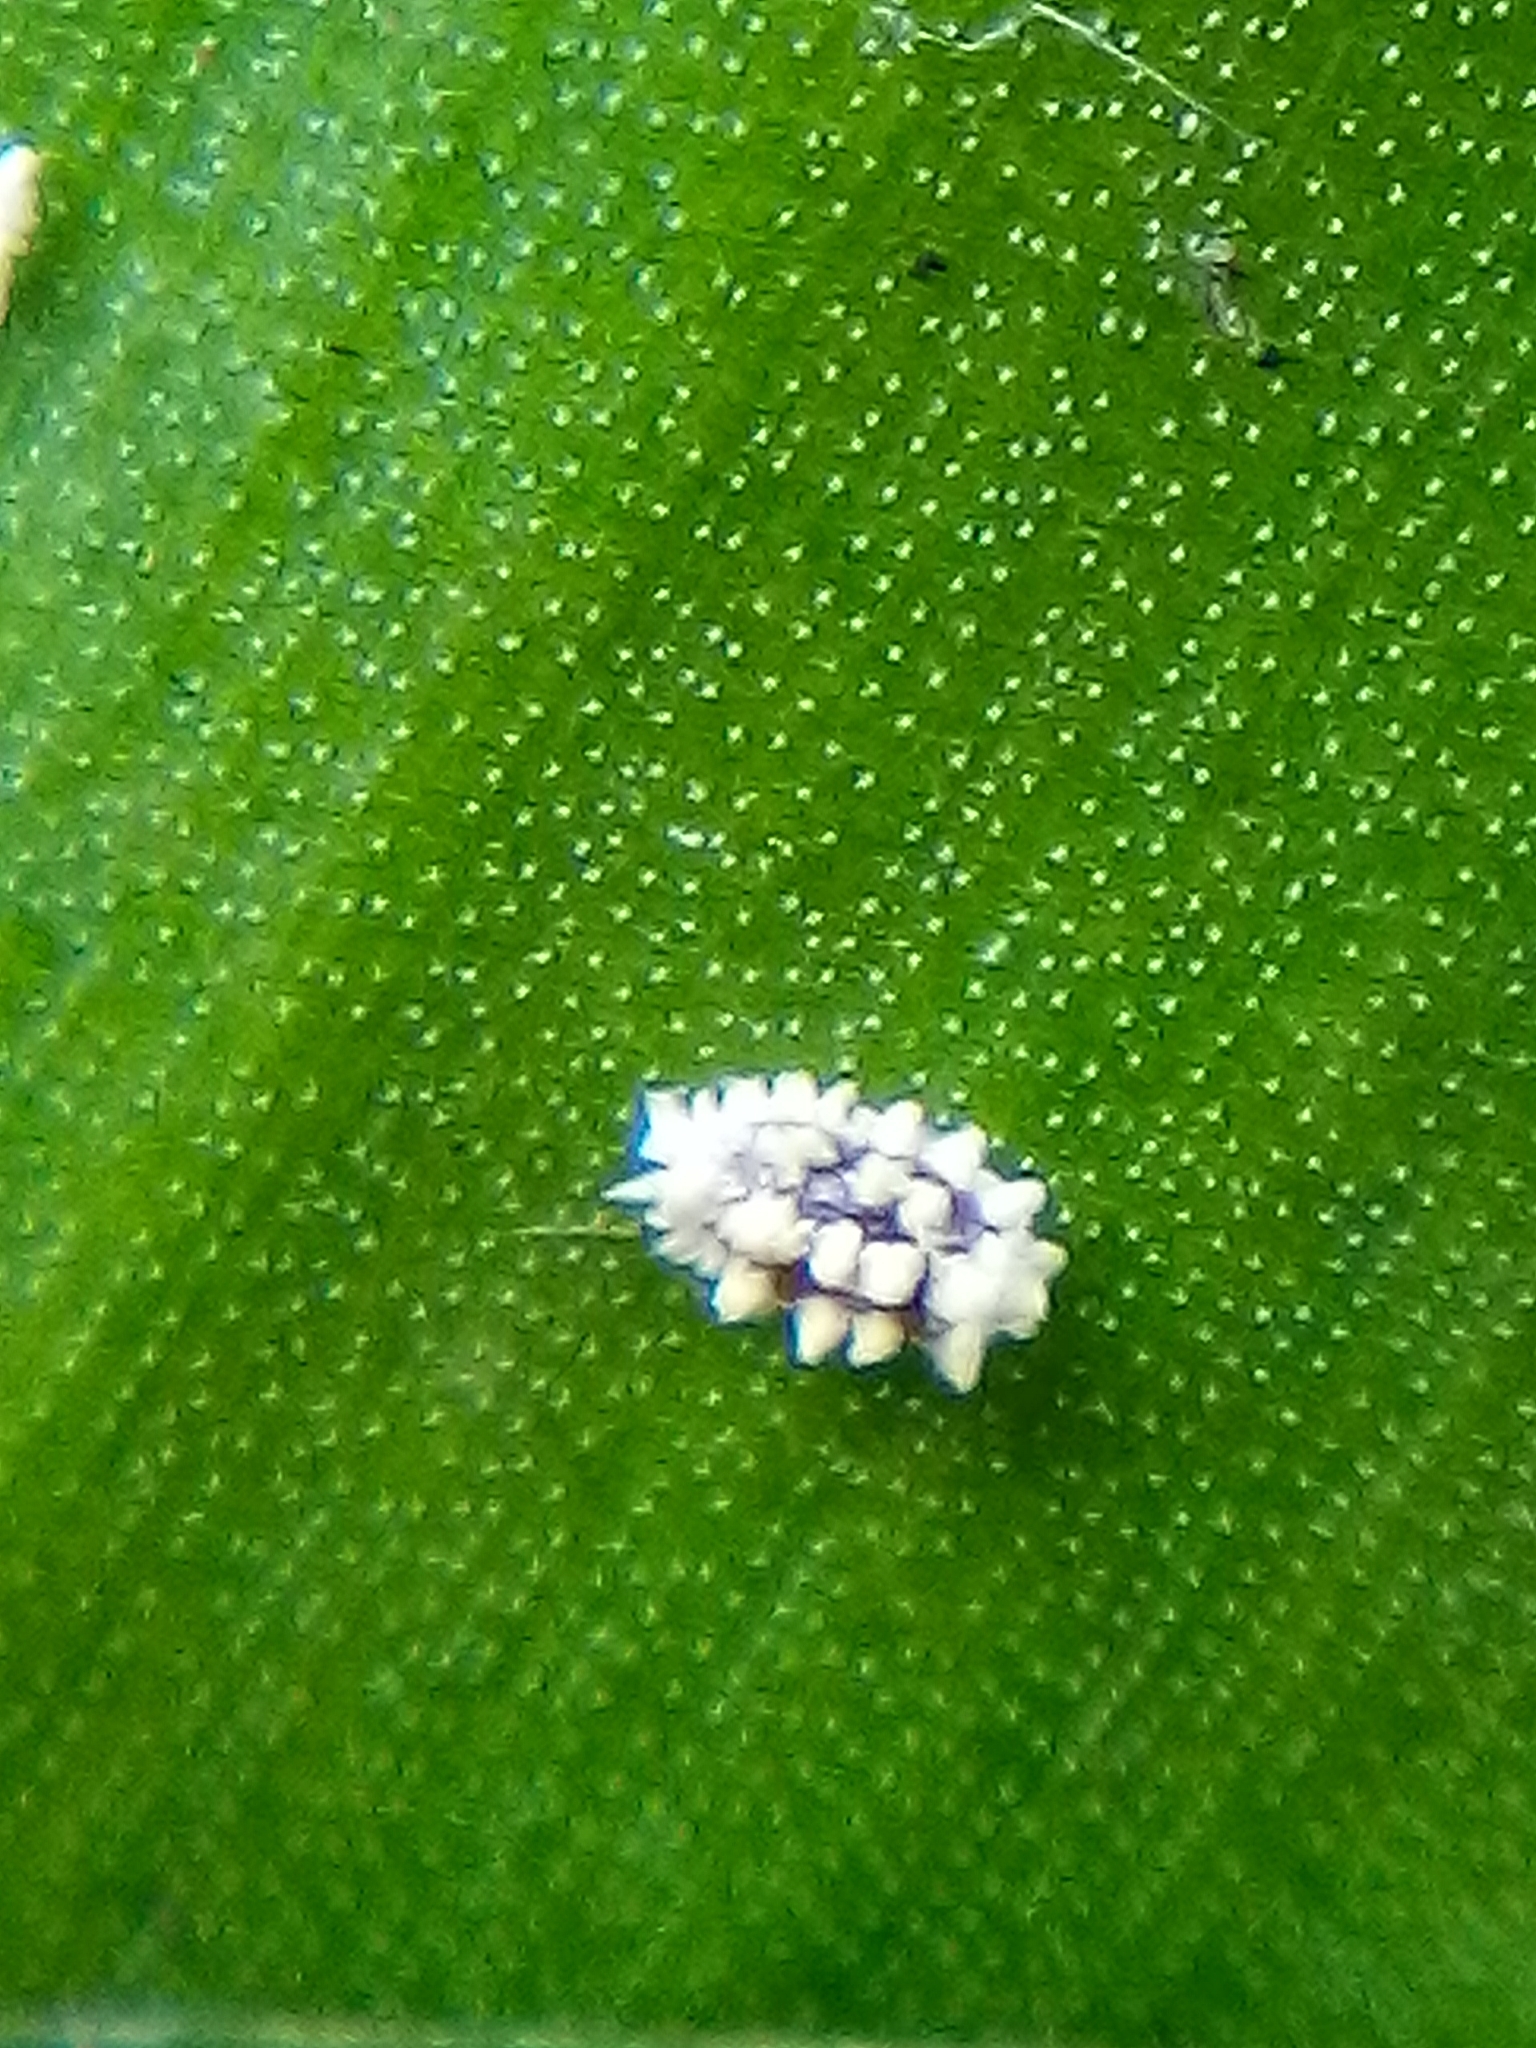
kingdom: Animalia
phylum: Arthropoda
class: Insecta
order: Hemiptera
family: Pseudococcidae
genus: Nipaecoccus
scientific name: Nipaecoccus aurilanatus
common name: Mealybug
